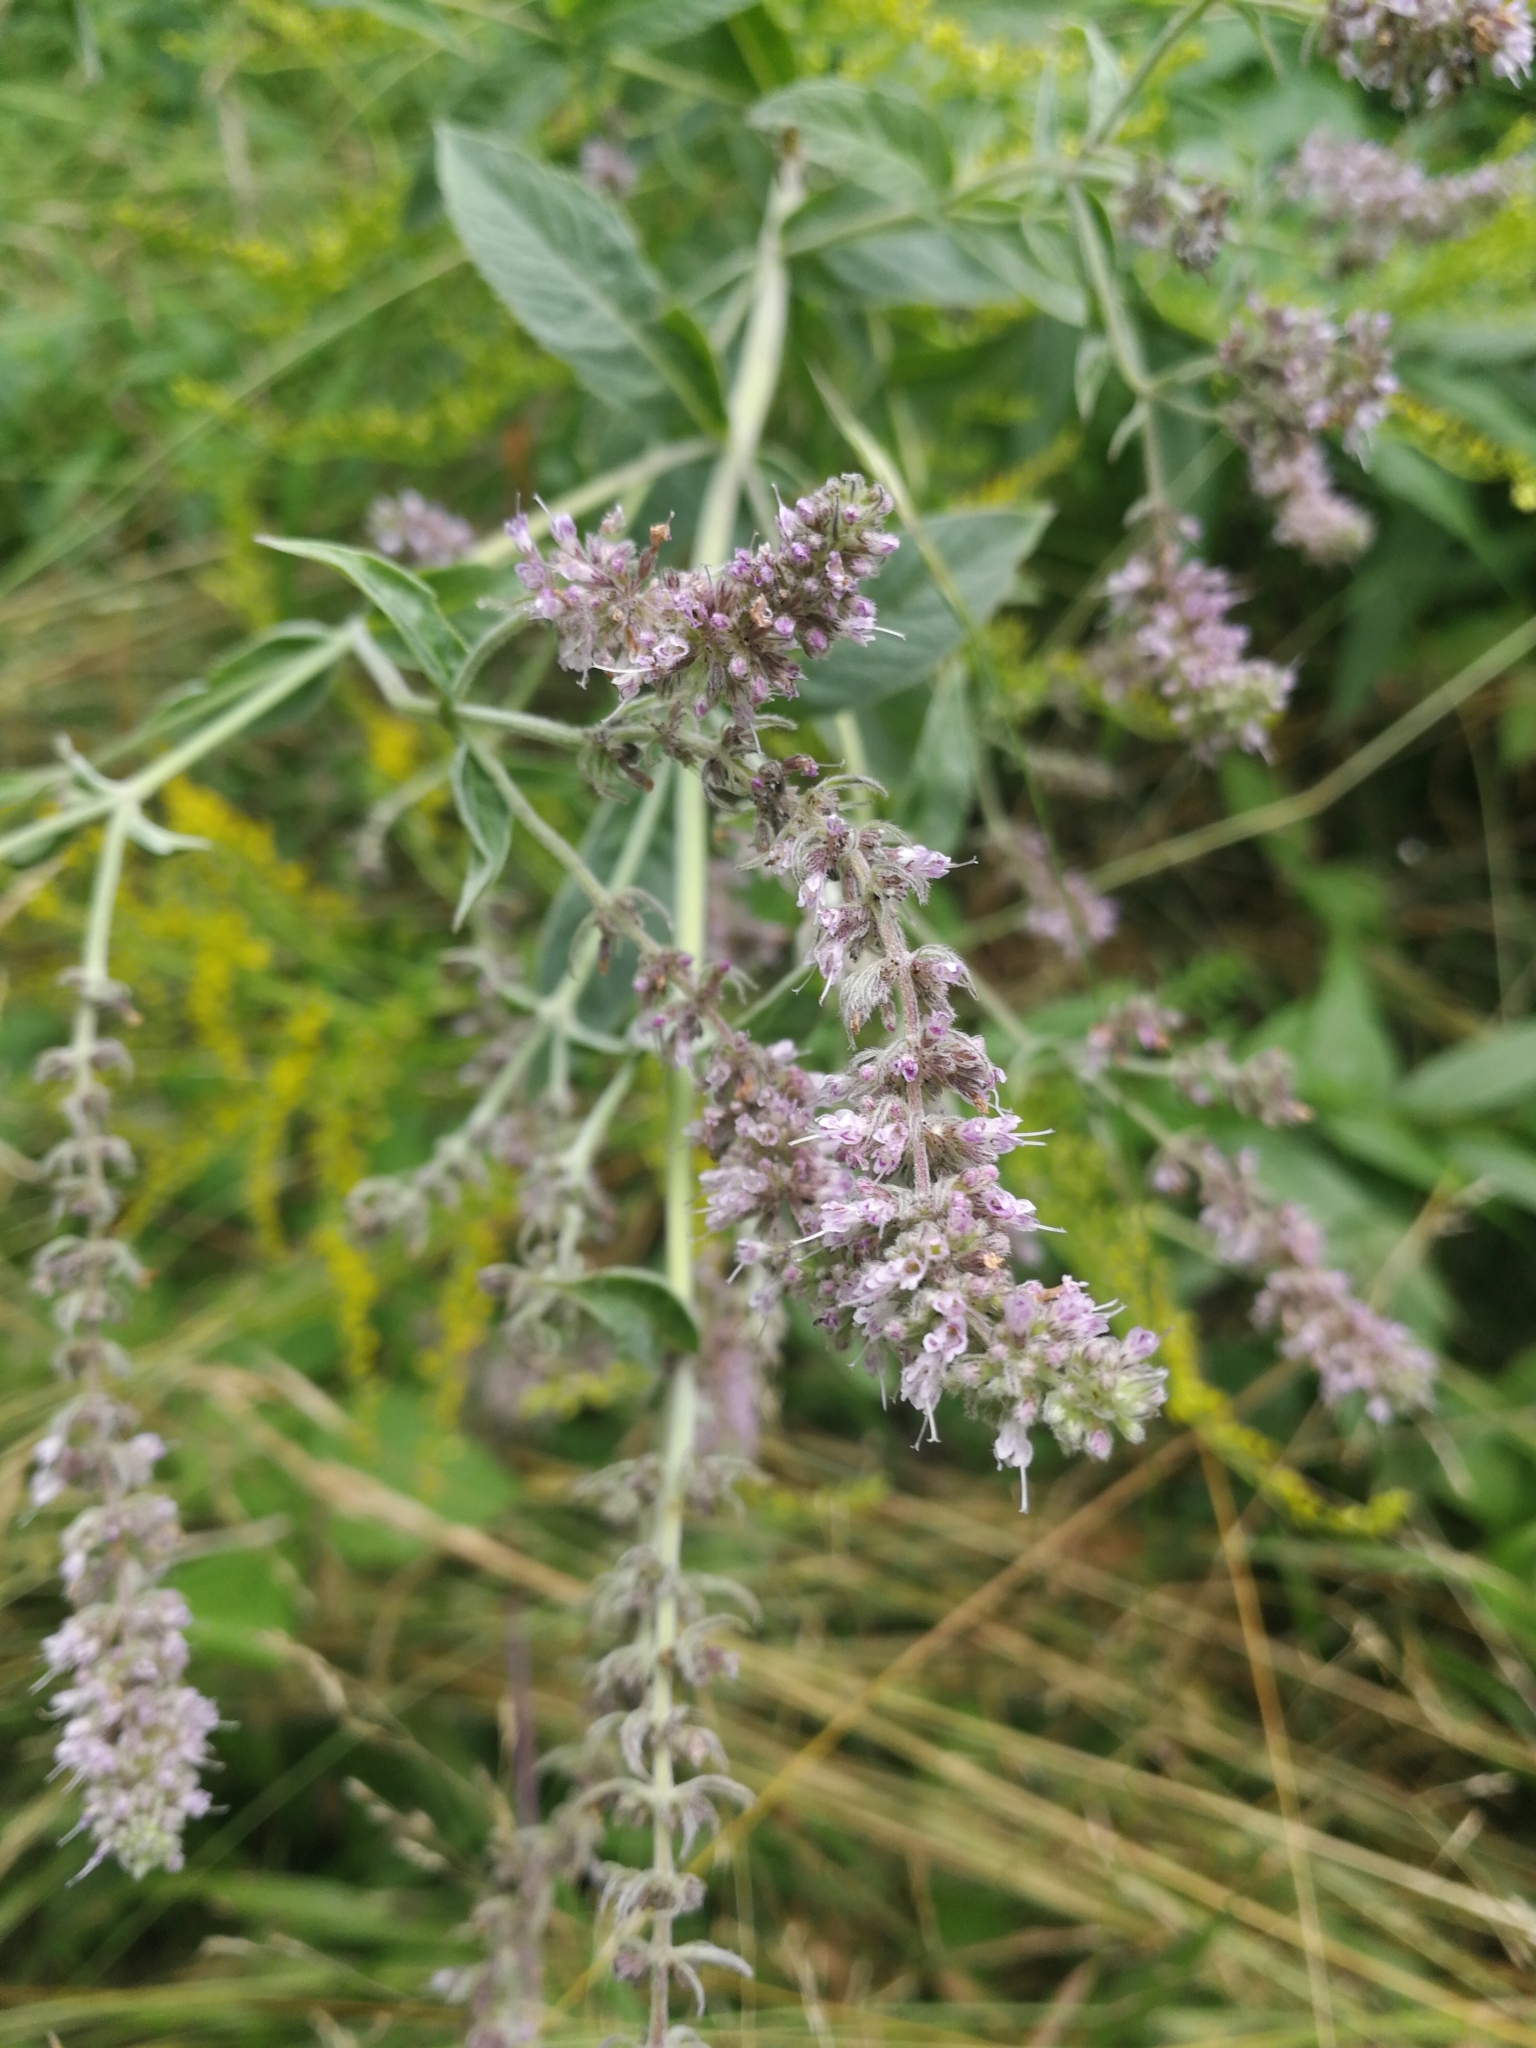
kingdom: Plantae
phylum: Tracheophyta
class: Magnoliopsida
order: Lamiales
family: Lamiaceae
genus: Mentha
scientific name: Mentha longifolia
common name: Horse mint
